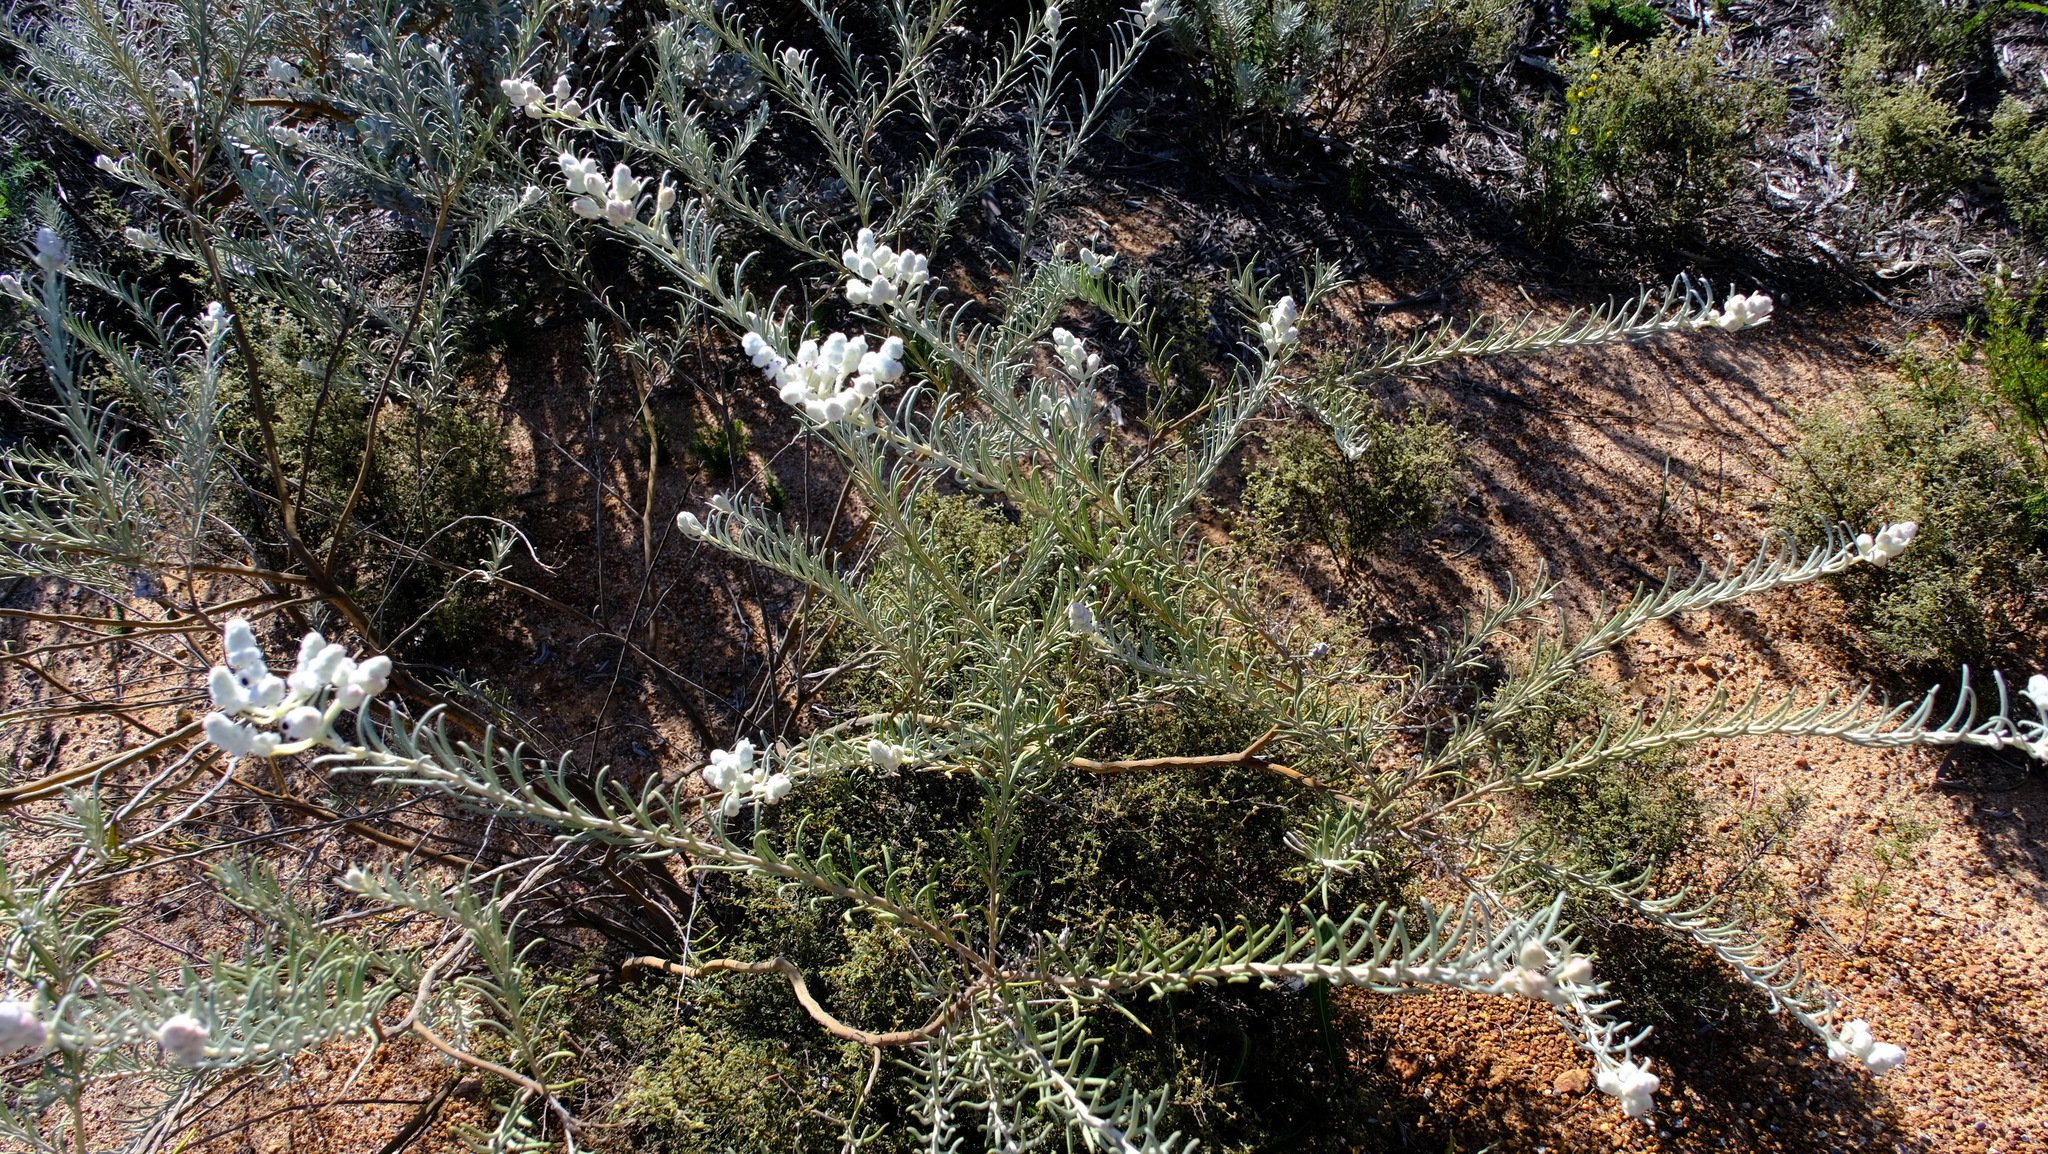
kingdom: Plantae
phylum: Tracheophyta
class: Magnoliopsida
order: Lamiales
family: Lamiaceae
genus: Lachnostachys
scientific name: Lachnostachys eriobotrya
